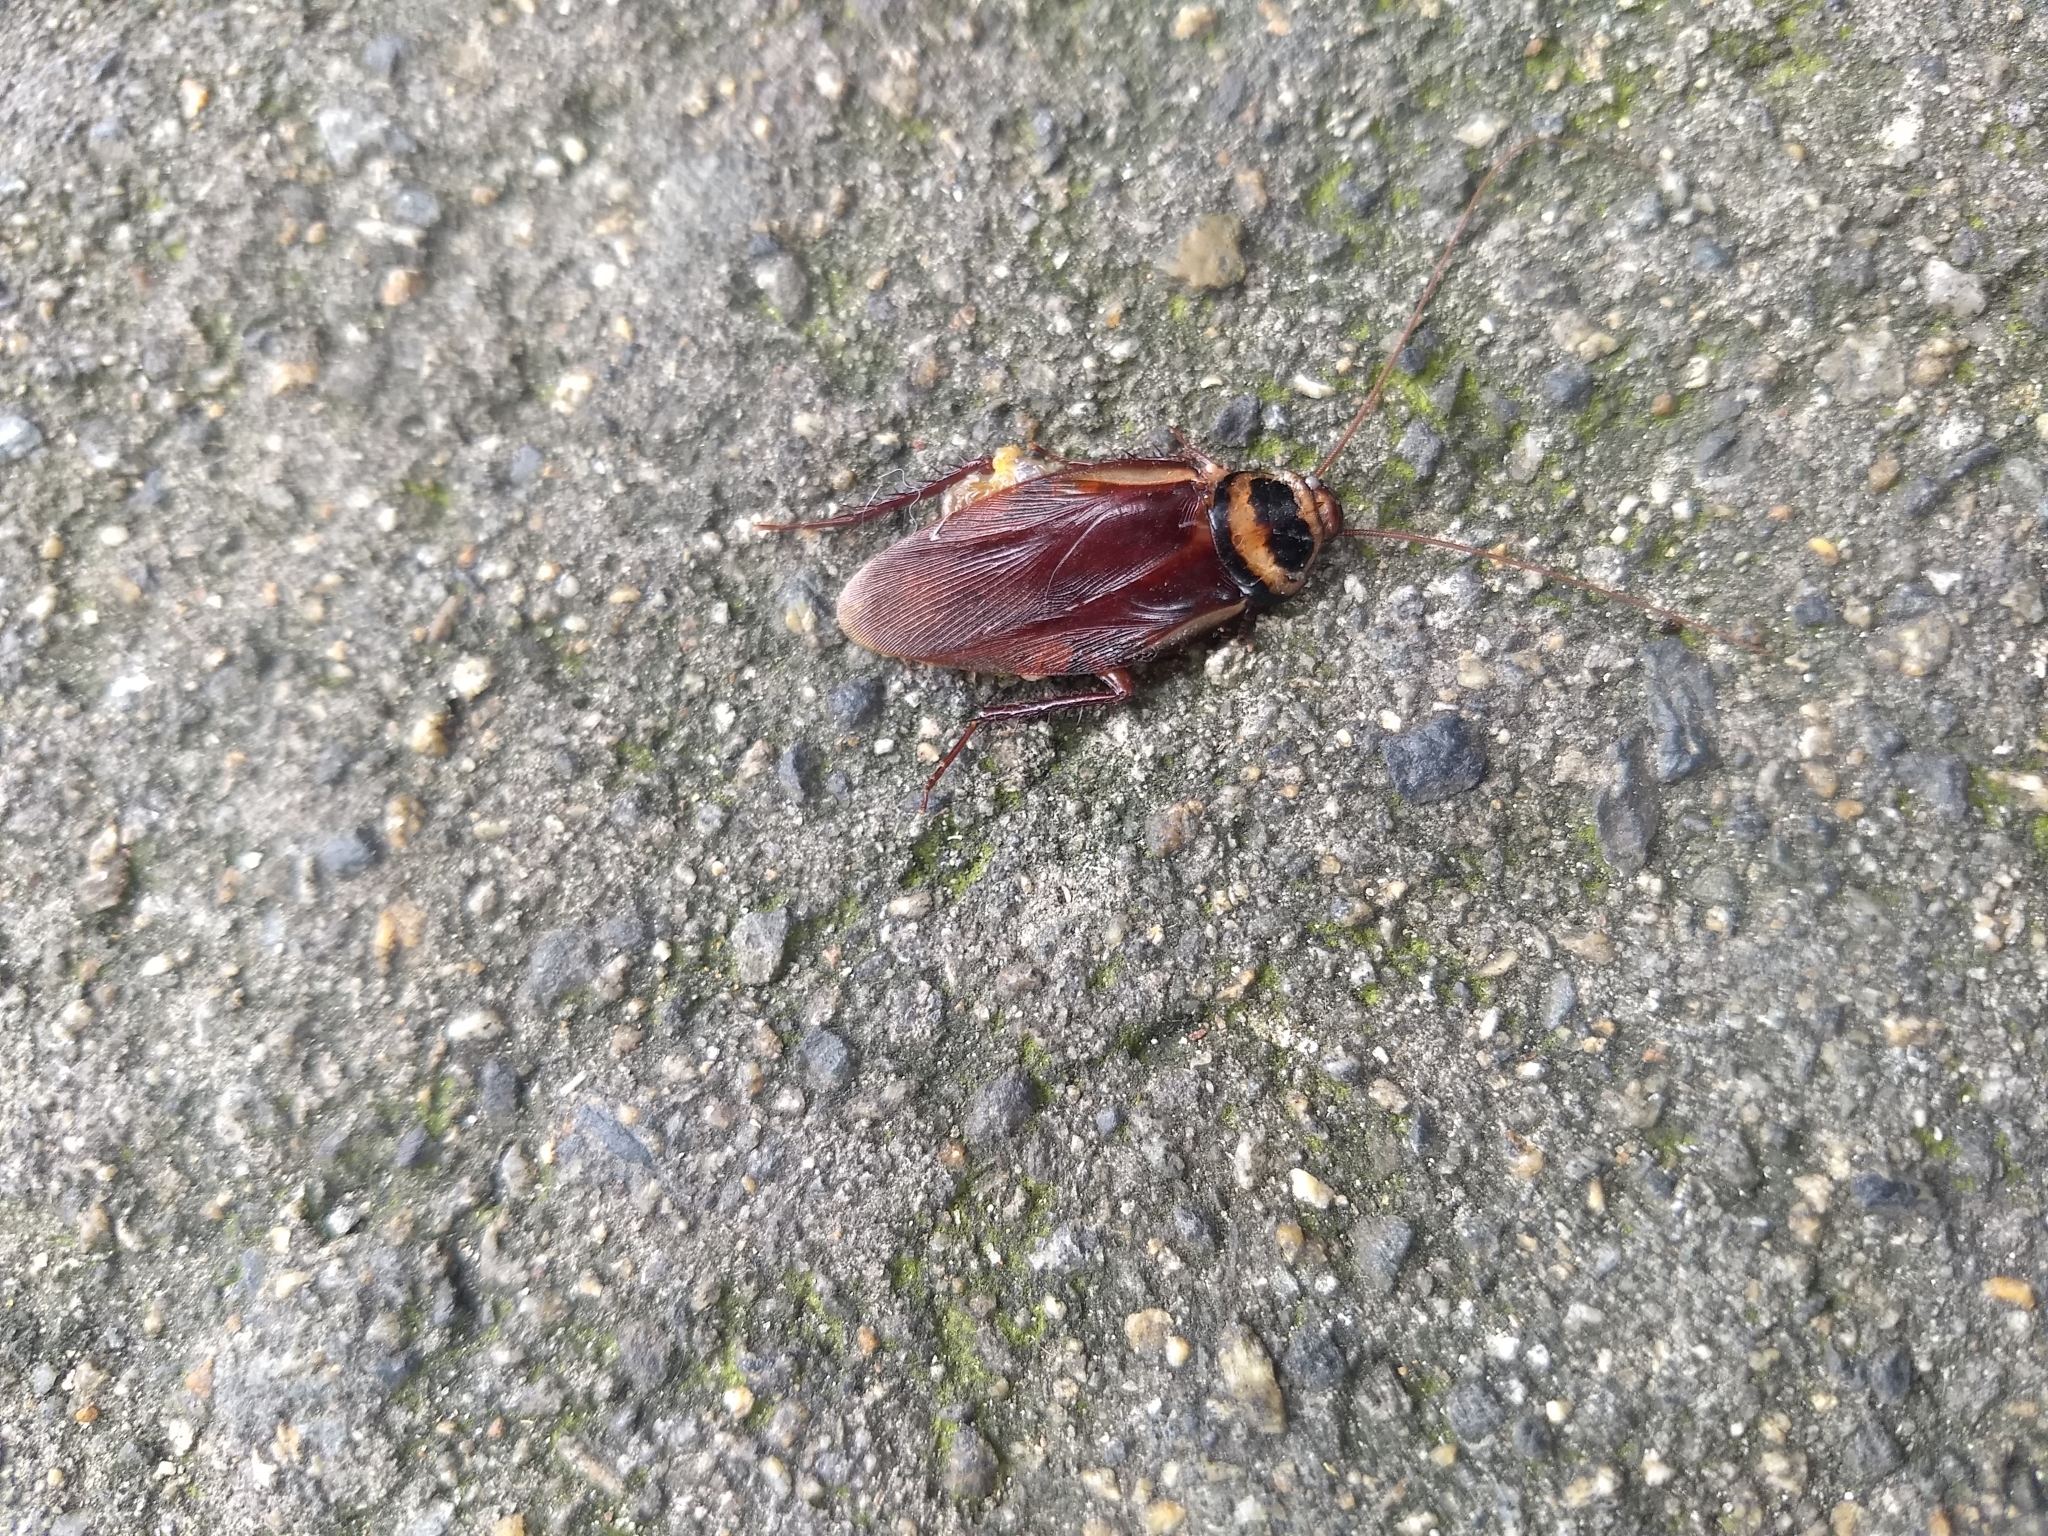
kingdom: Animalia
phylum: Arthropoda
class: Insecta
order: Blattodea
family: Blattidae
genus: Periplaneta
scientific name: Periplaneta australasiae
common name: Australian cockroach
